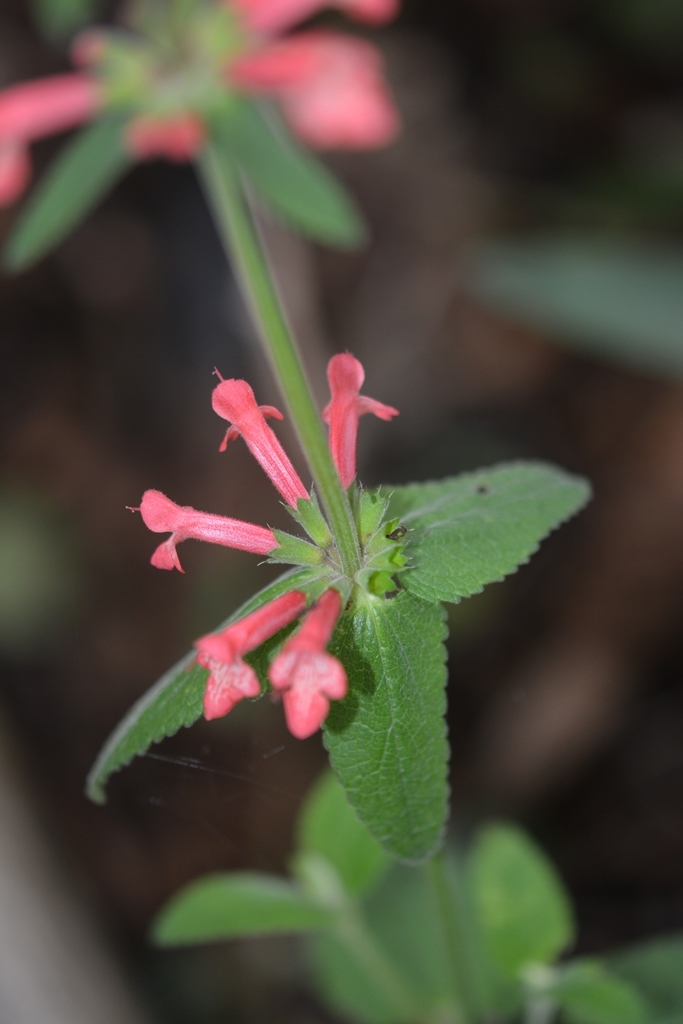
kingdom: Plantae
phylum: Tracheophyta
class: Magnoliopsida
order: Lamiales
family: Lamiaceae
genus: Stachys
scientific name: Stachys coccinea
